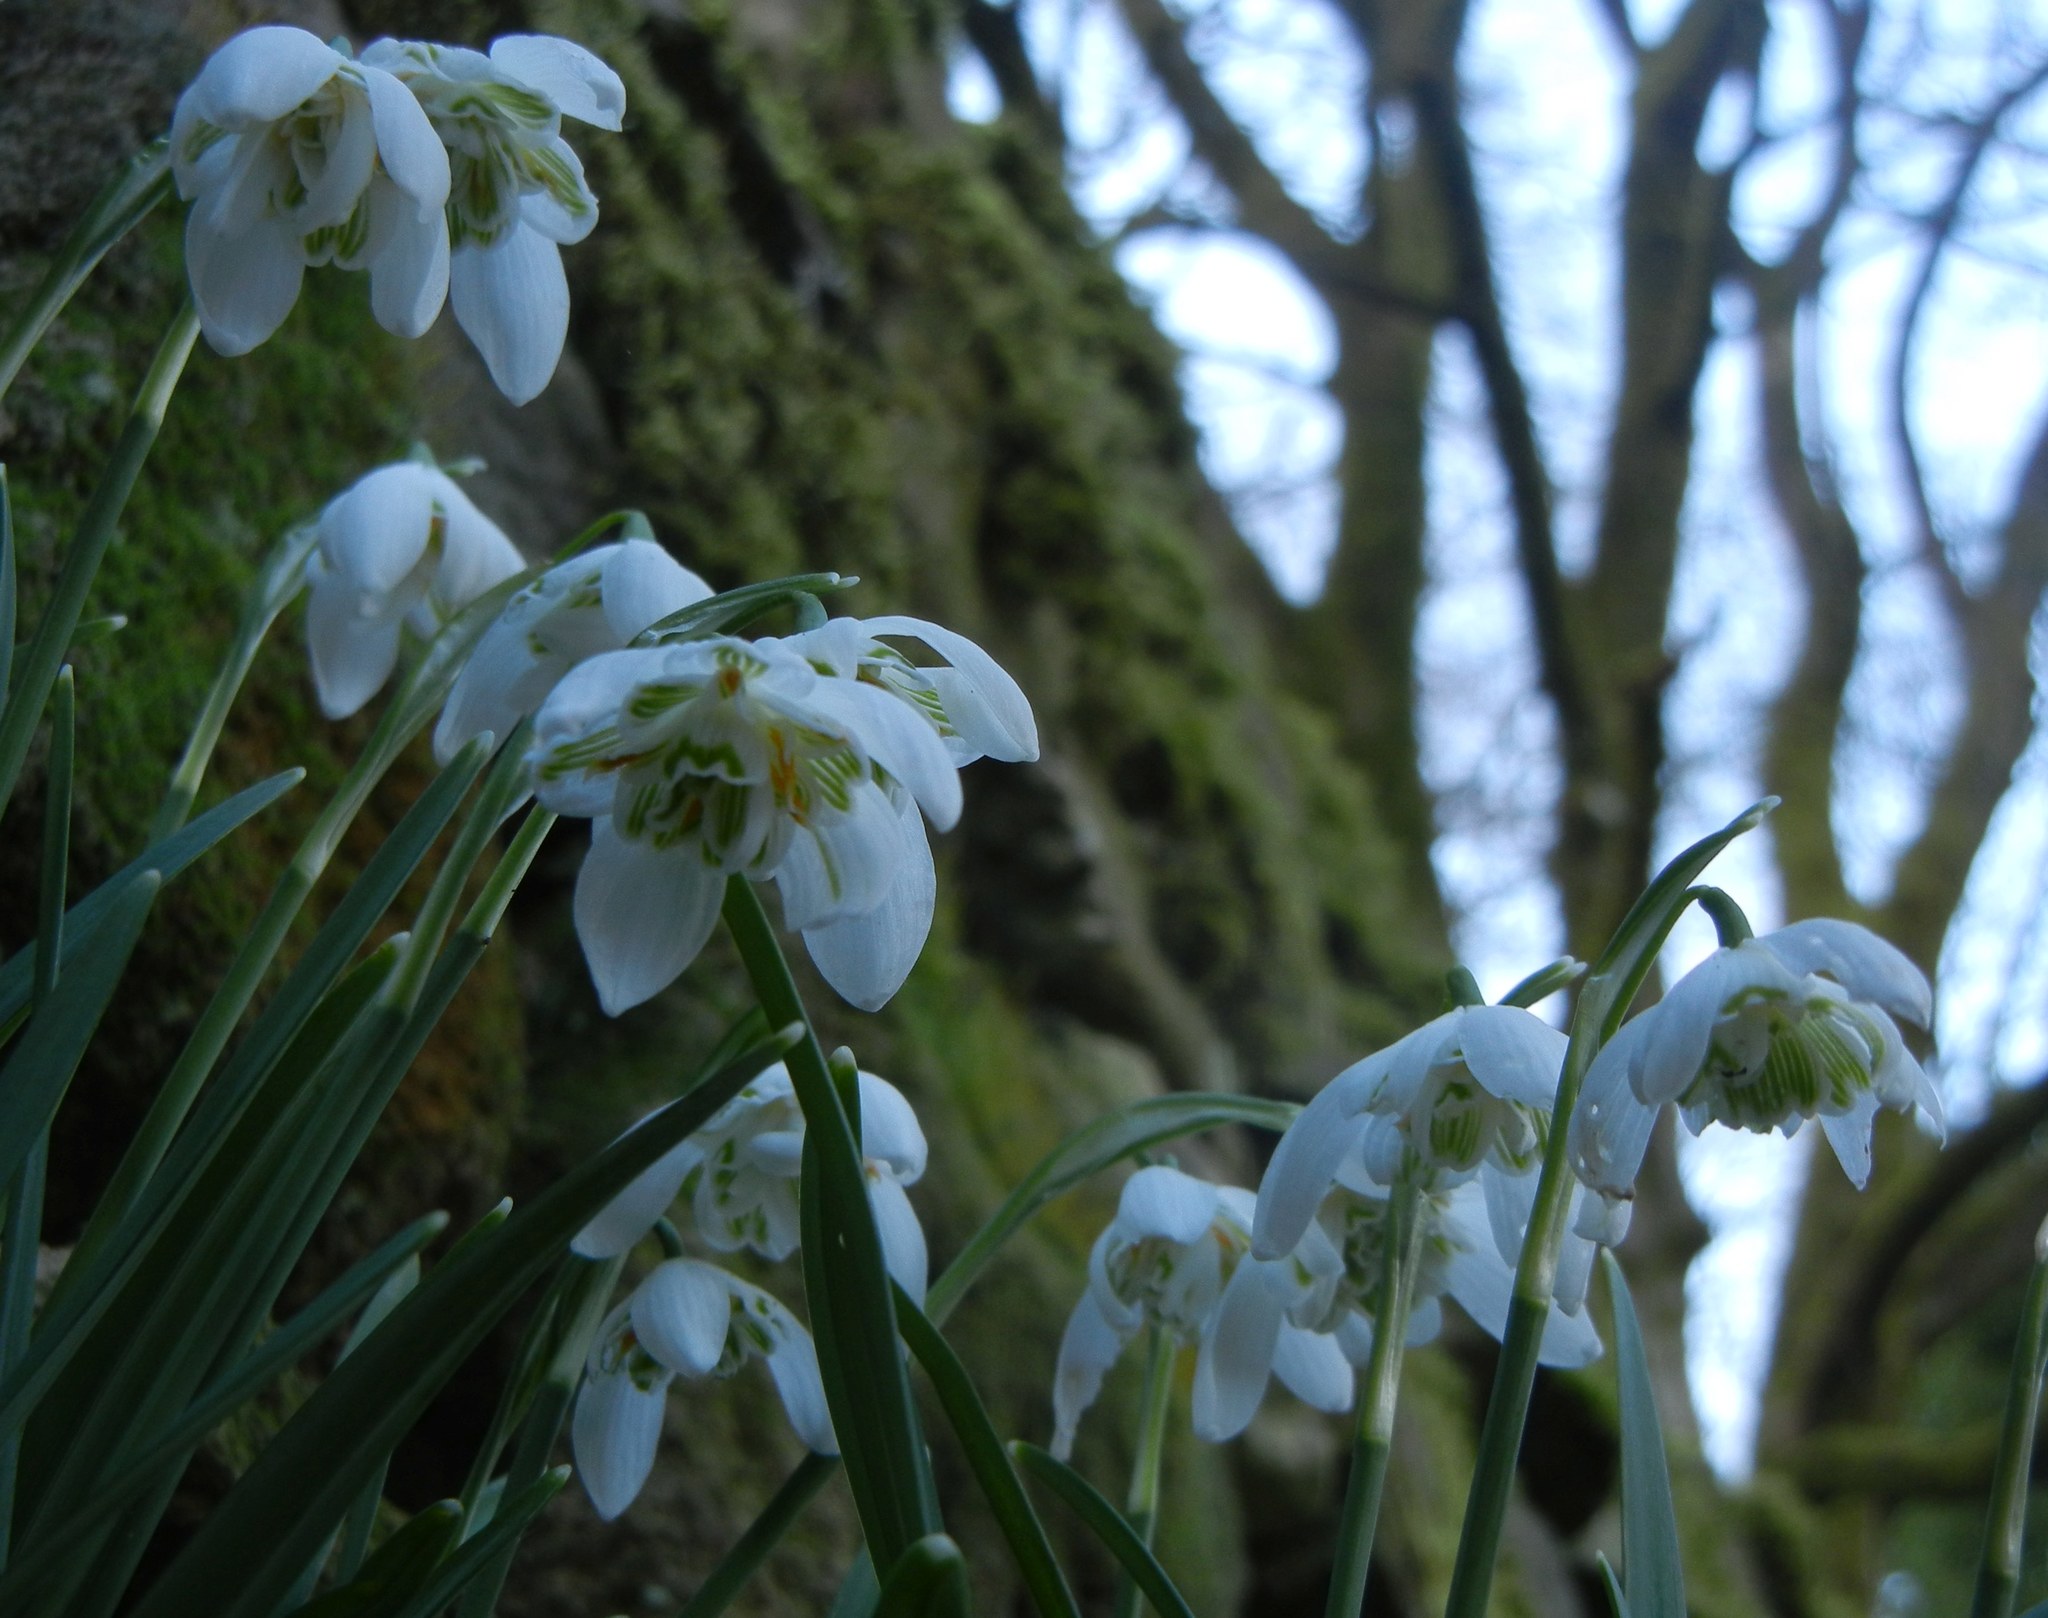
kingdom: Plantae
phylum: Tracheophyta
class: Liliopsida
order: Asparagales
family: Amaryllidaceae
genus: Galanthus
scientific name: Galanthus nivalis
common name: Snowdrop
